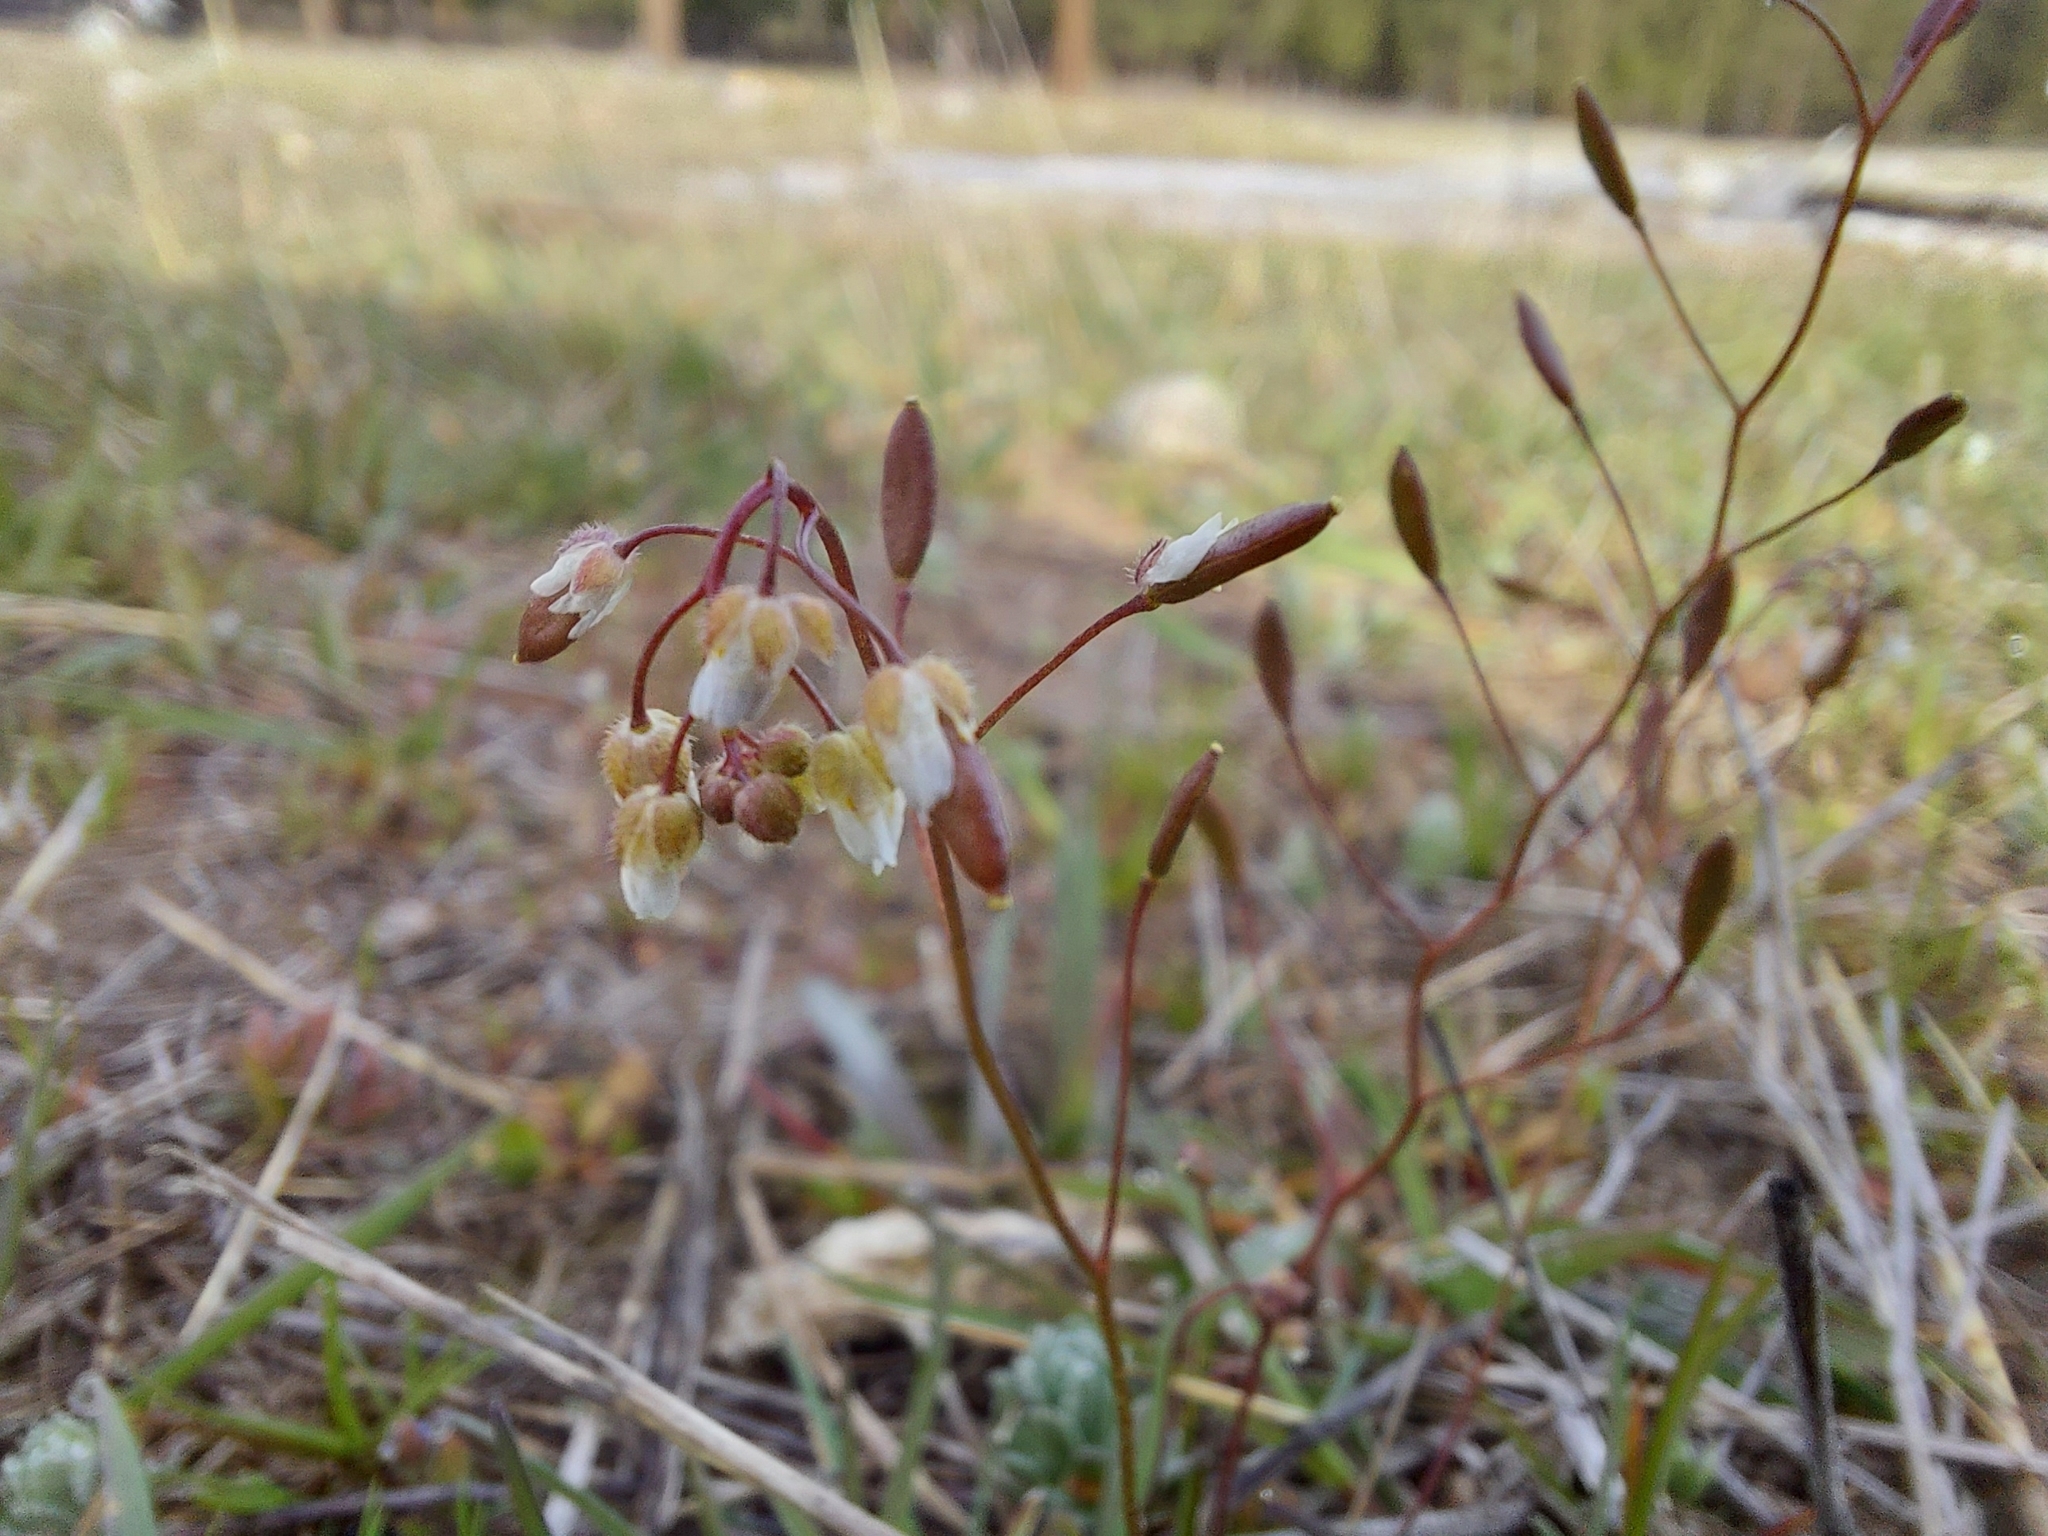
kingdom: Plantae
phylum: Tracheophyta
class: Magnoliopsida
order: Brassicales
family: Brassicaceae
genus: Draba
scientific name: Draba verna
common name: Spring draba
